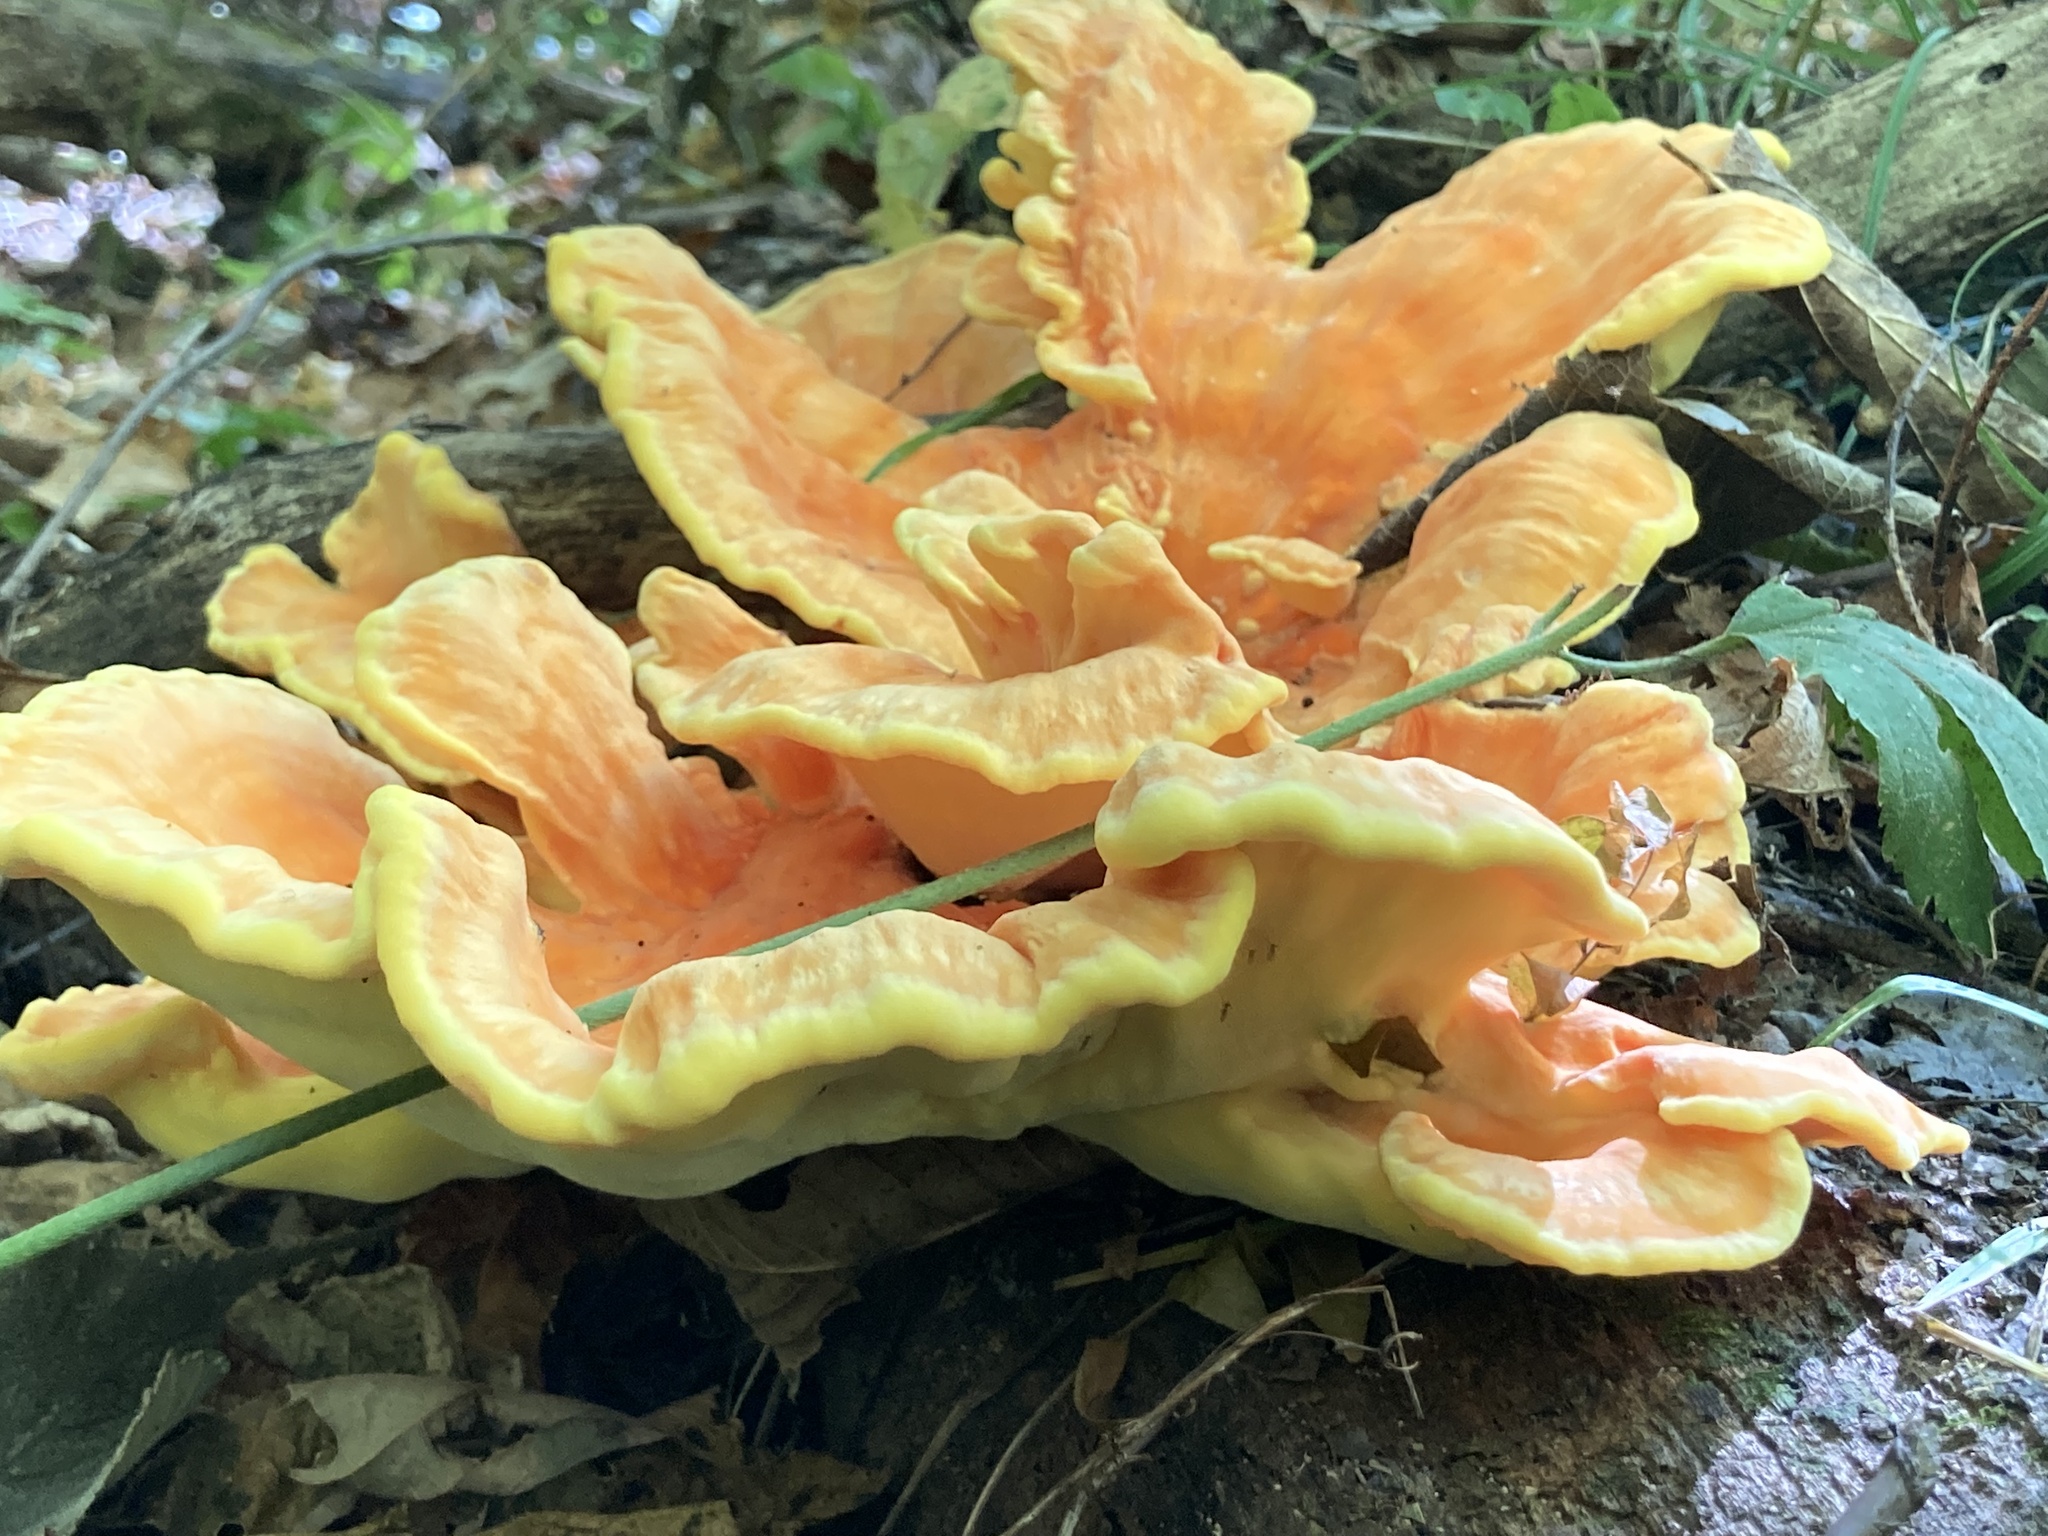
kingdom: Fungi
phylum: Basidiomycota
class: Agaricomycetes
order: Polyporales
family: Laetiporaceae
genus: Laetiporus
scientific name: Laetiporus sulphureus
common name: Chicken of the woods
